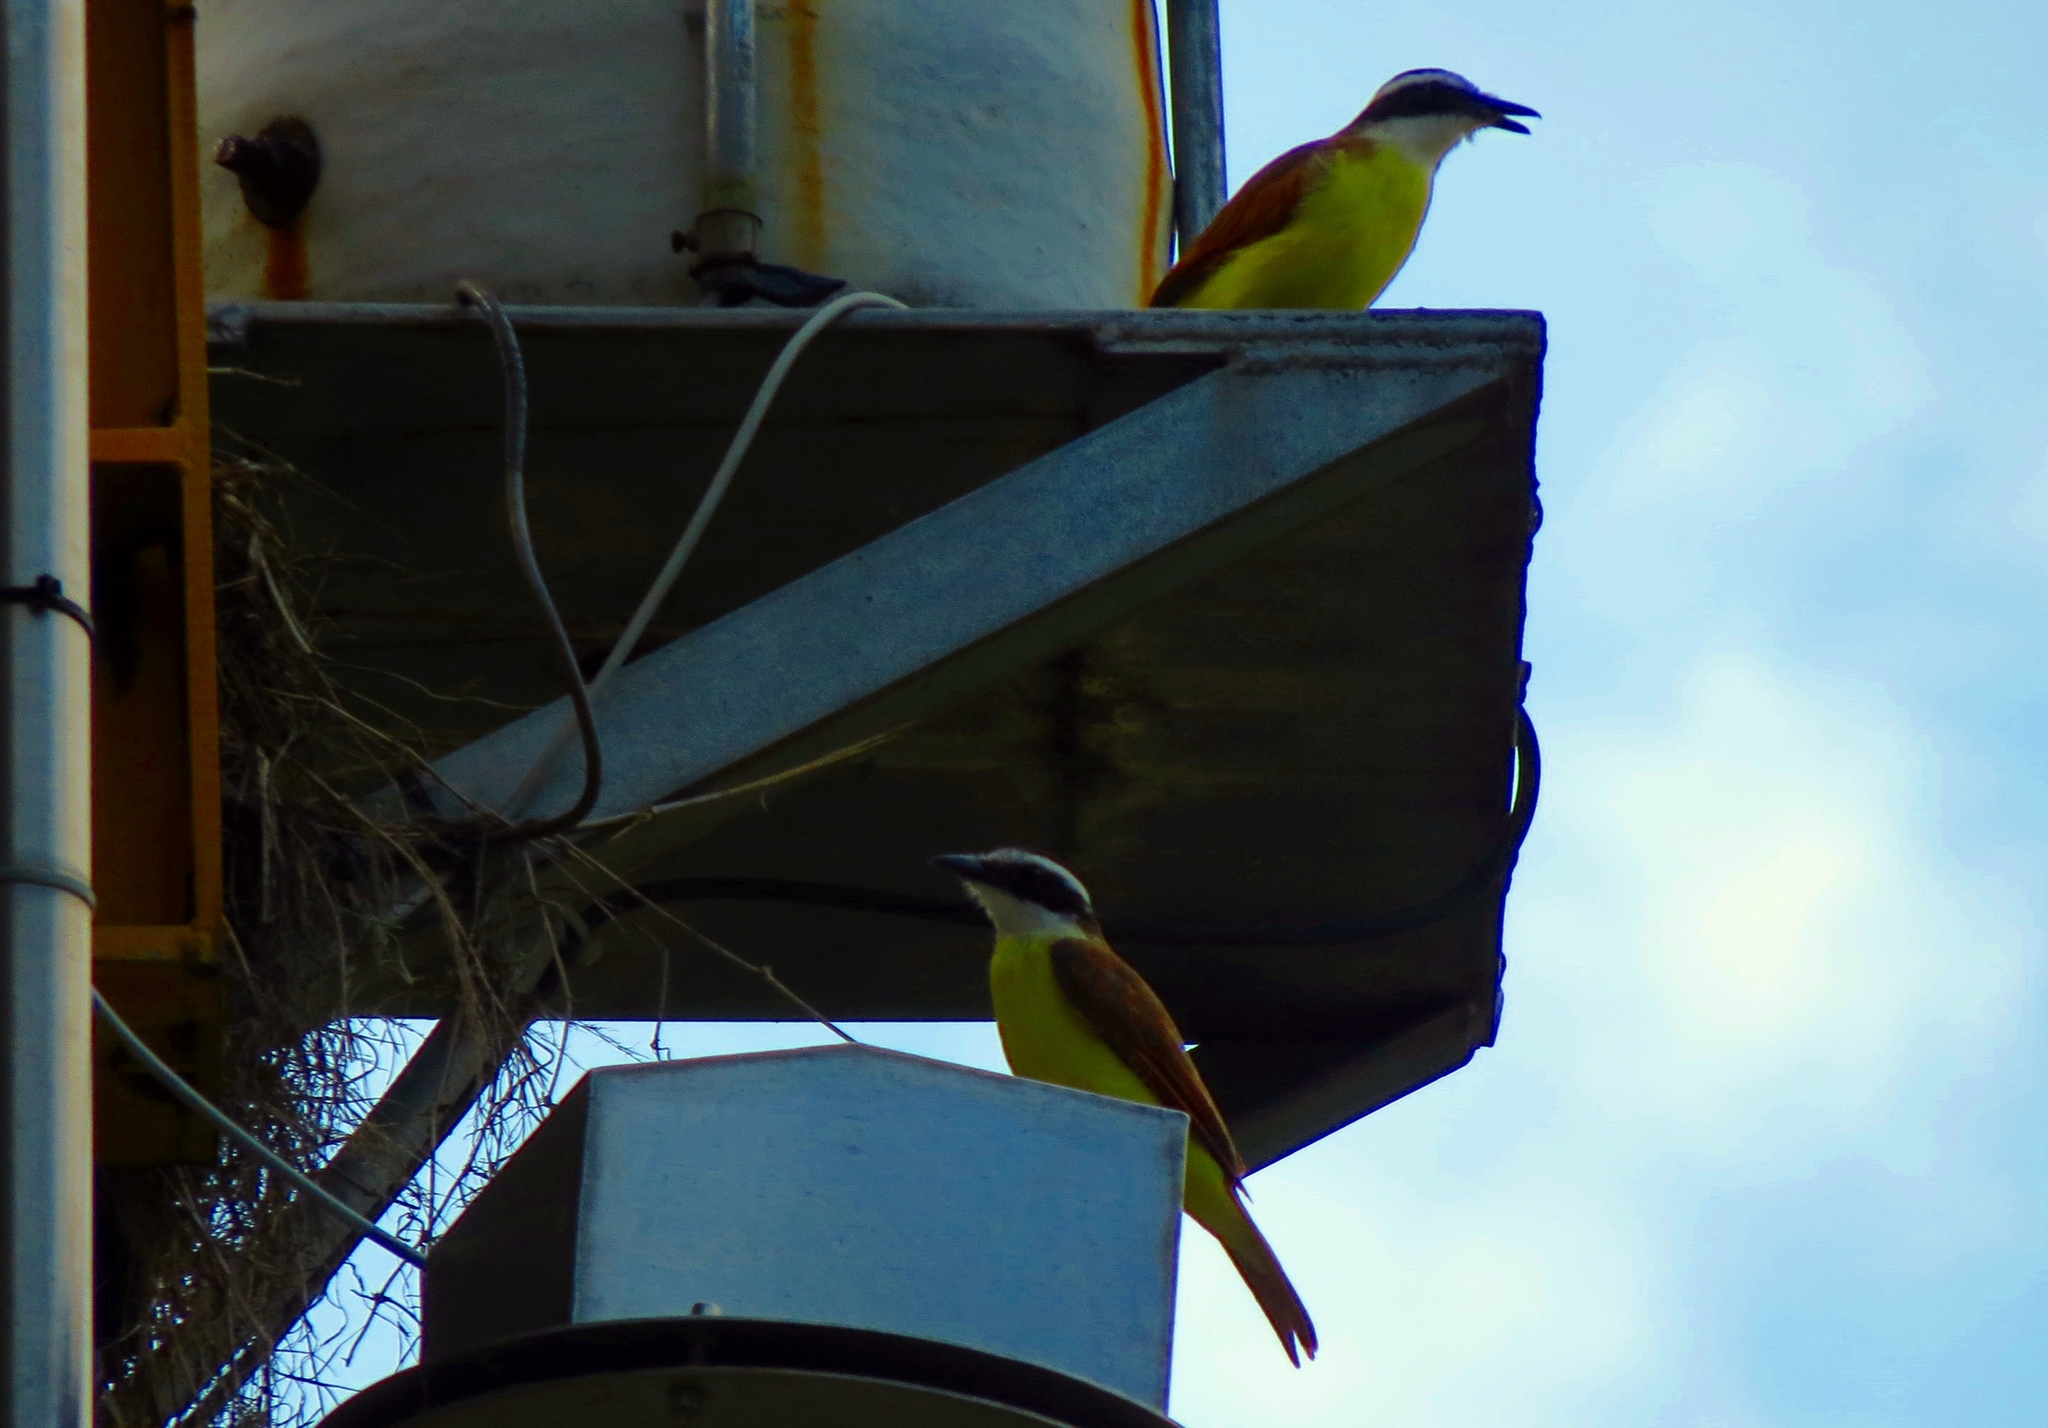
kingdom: Animalia
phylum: Chordata
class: Aves
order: Passeriformes
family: Tyrannidae
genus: Pitangus
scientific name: Pitangus sulphuratus
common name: Great kiskadee
